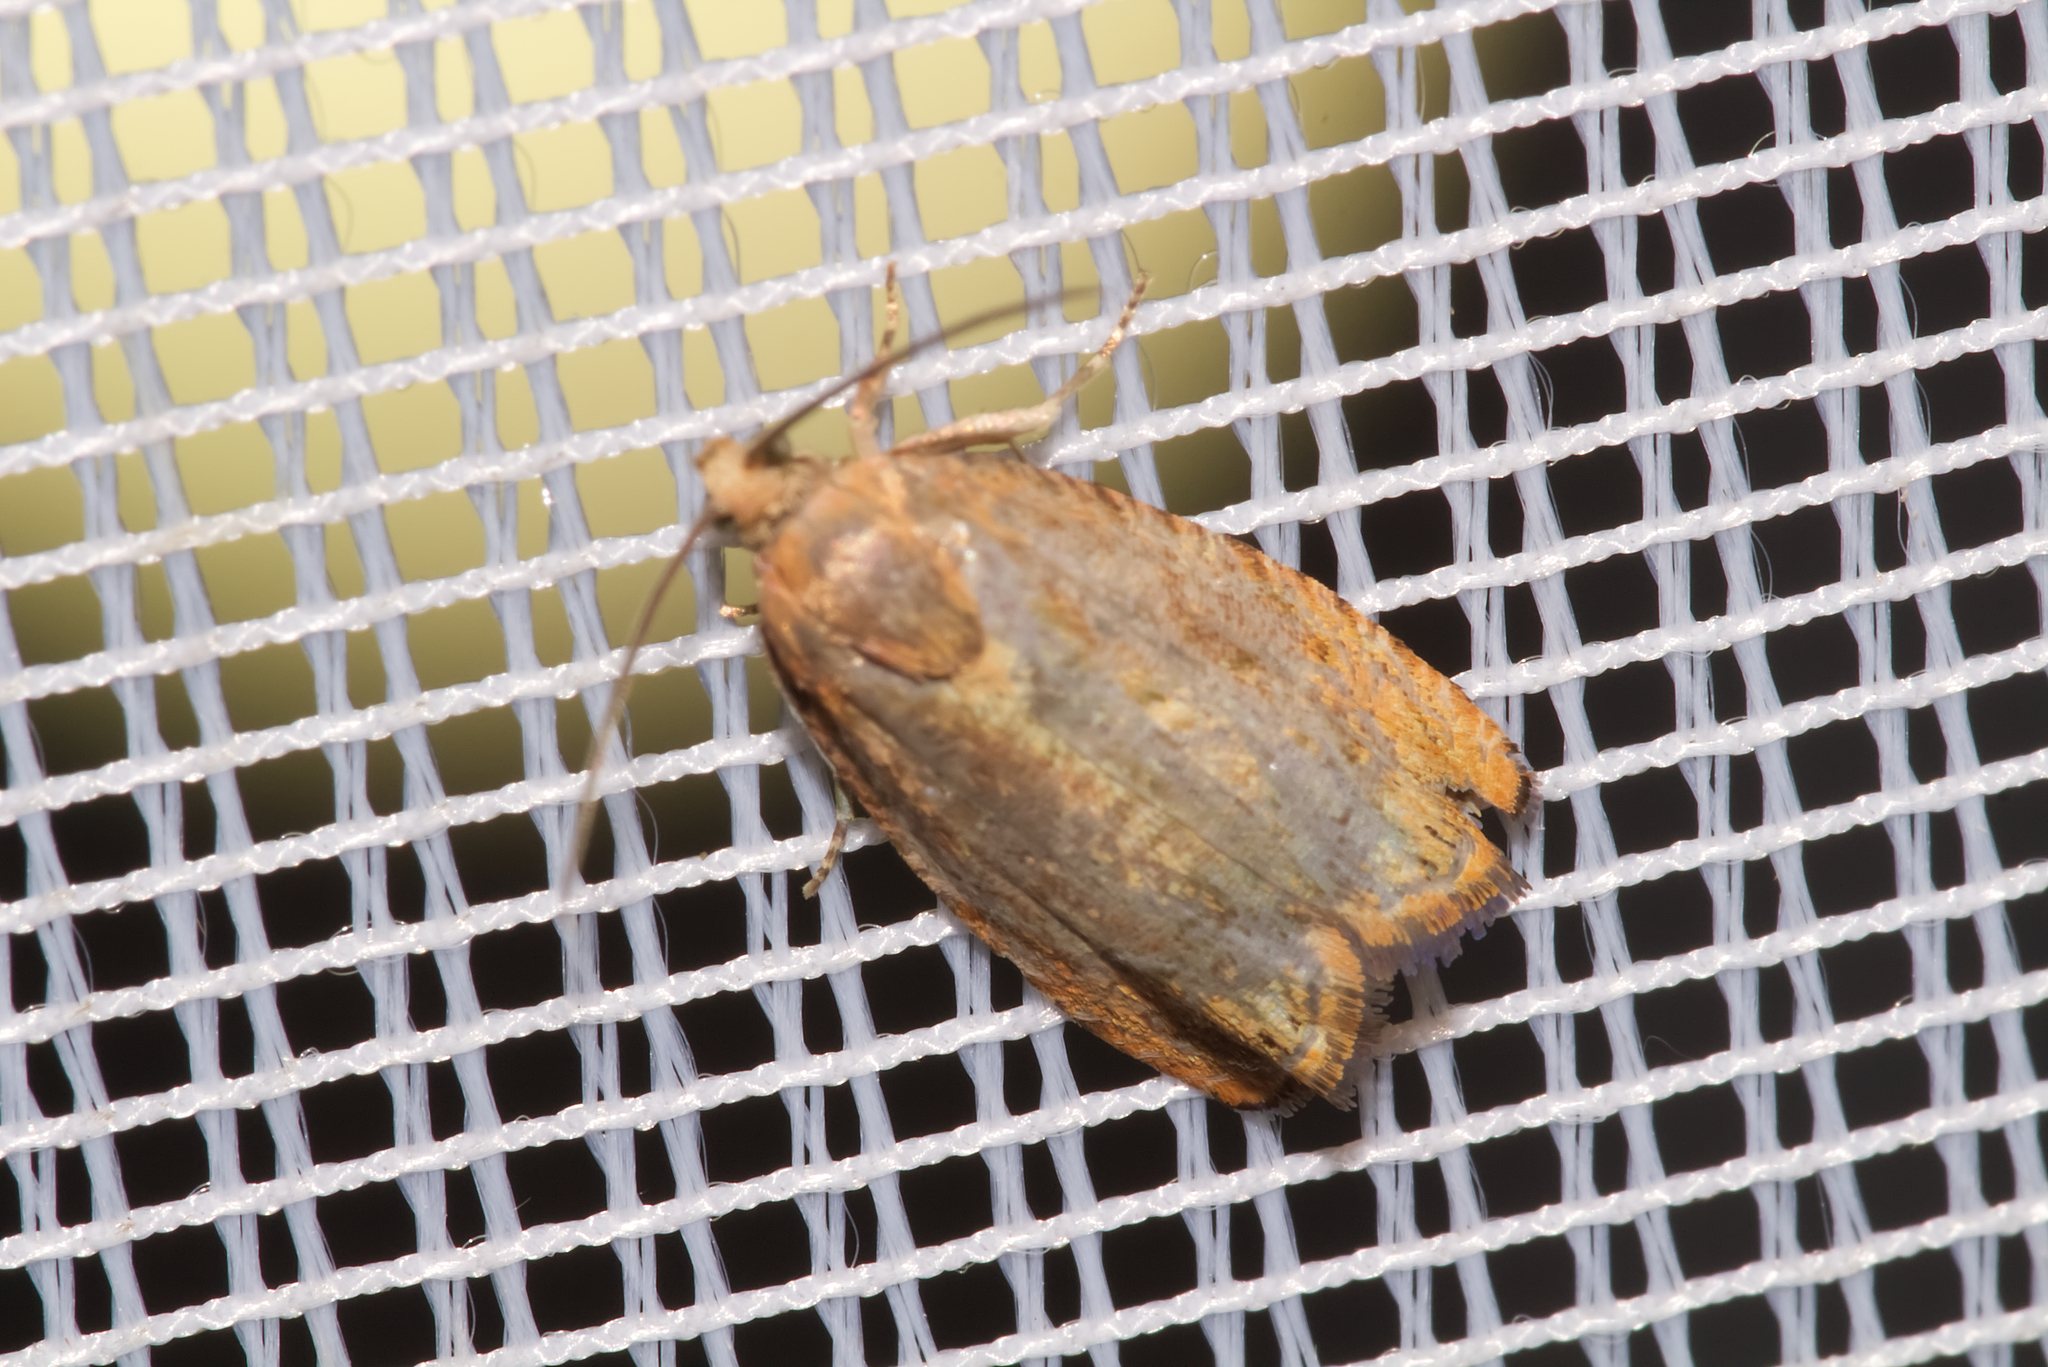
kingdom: Animalia
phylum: Arthropoda
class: Insecta
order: Lepidoptera
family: Tortricidae
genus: Cydia
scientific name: Cydia amplana
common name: Vagrant piercer
